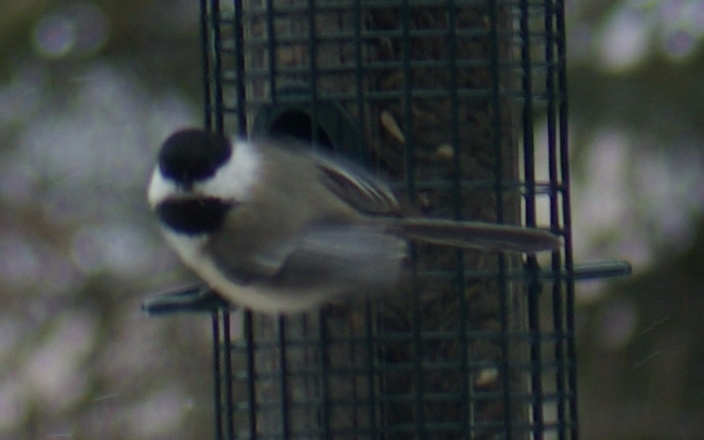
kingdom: Animalia
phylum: Chordata
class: Aves
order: Passeriformes
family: Paridae
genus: Poecile
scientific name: Poecile atricapillus
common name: Black-capped chickadee
